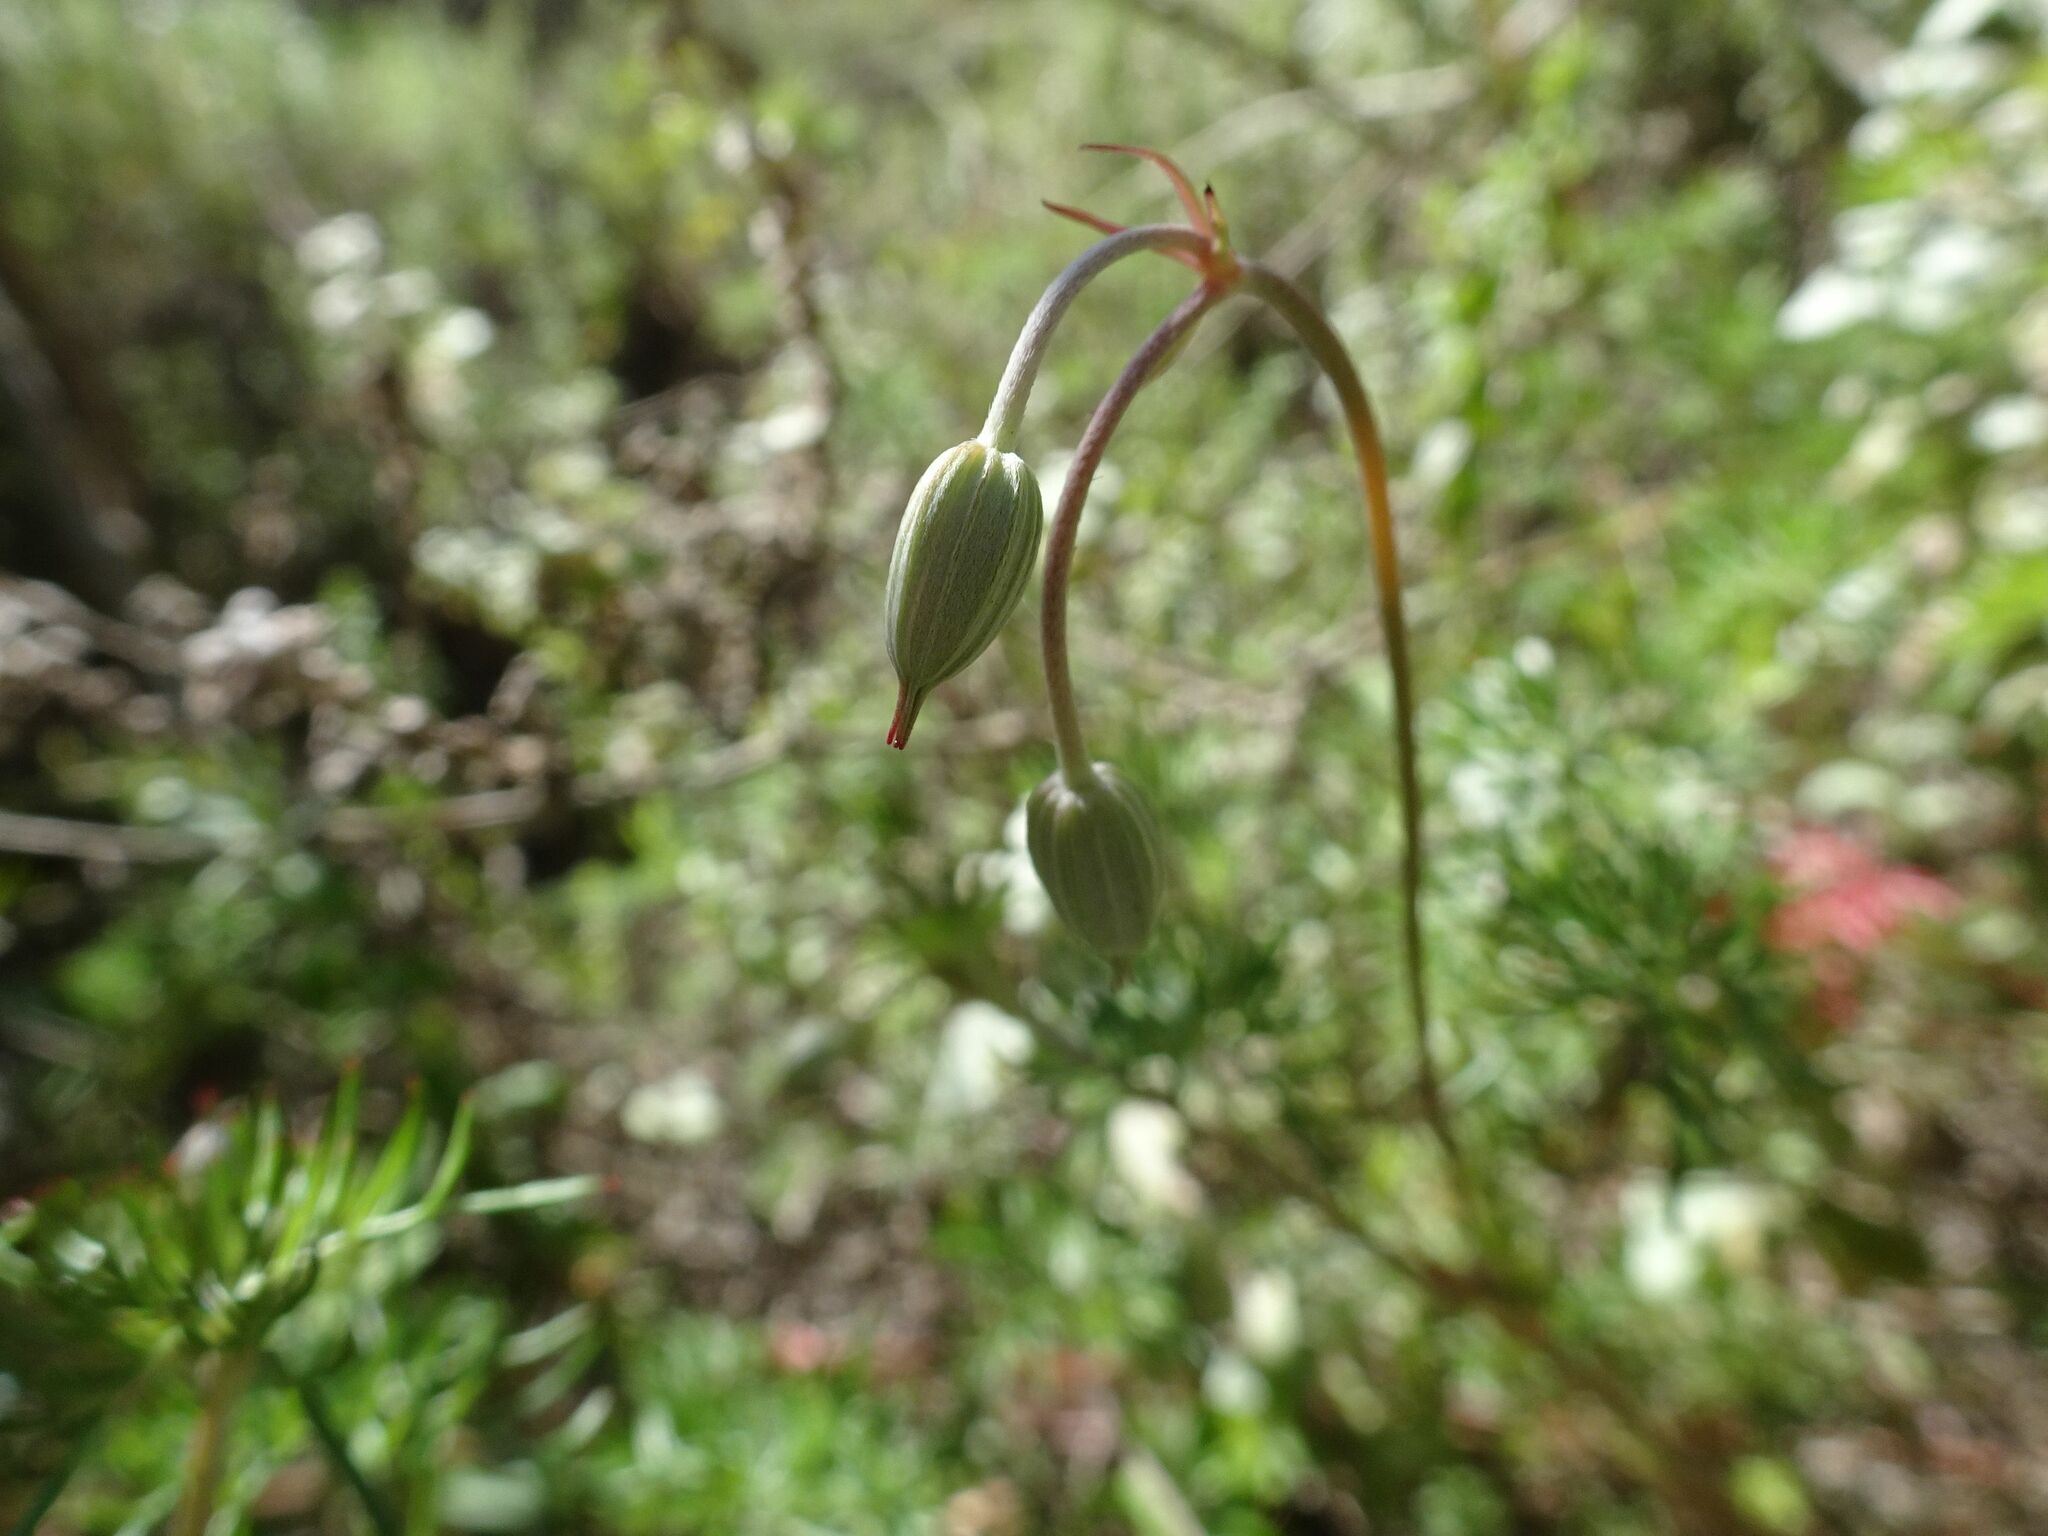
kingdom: Plantae
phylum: Tracheophyta
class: Magnoliopsida
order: Geraniales
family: Geraniaceae
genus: Geranium
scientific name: Geranium incanum
